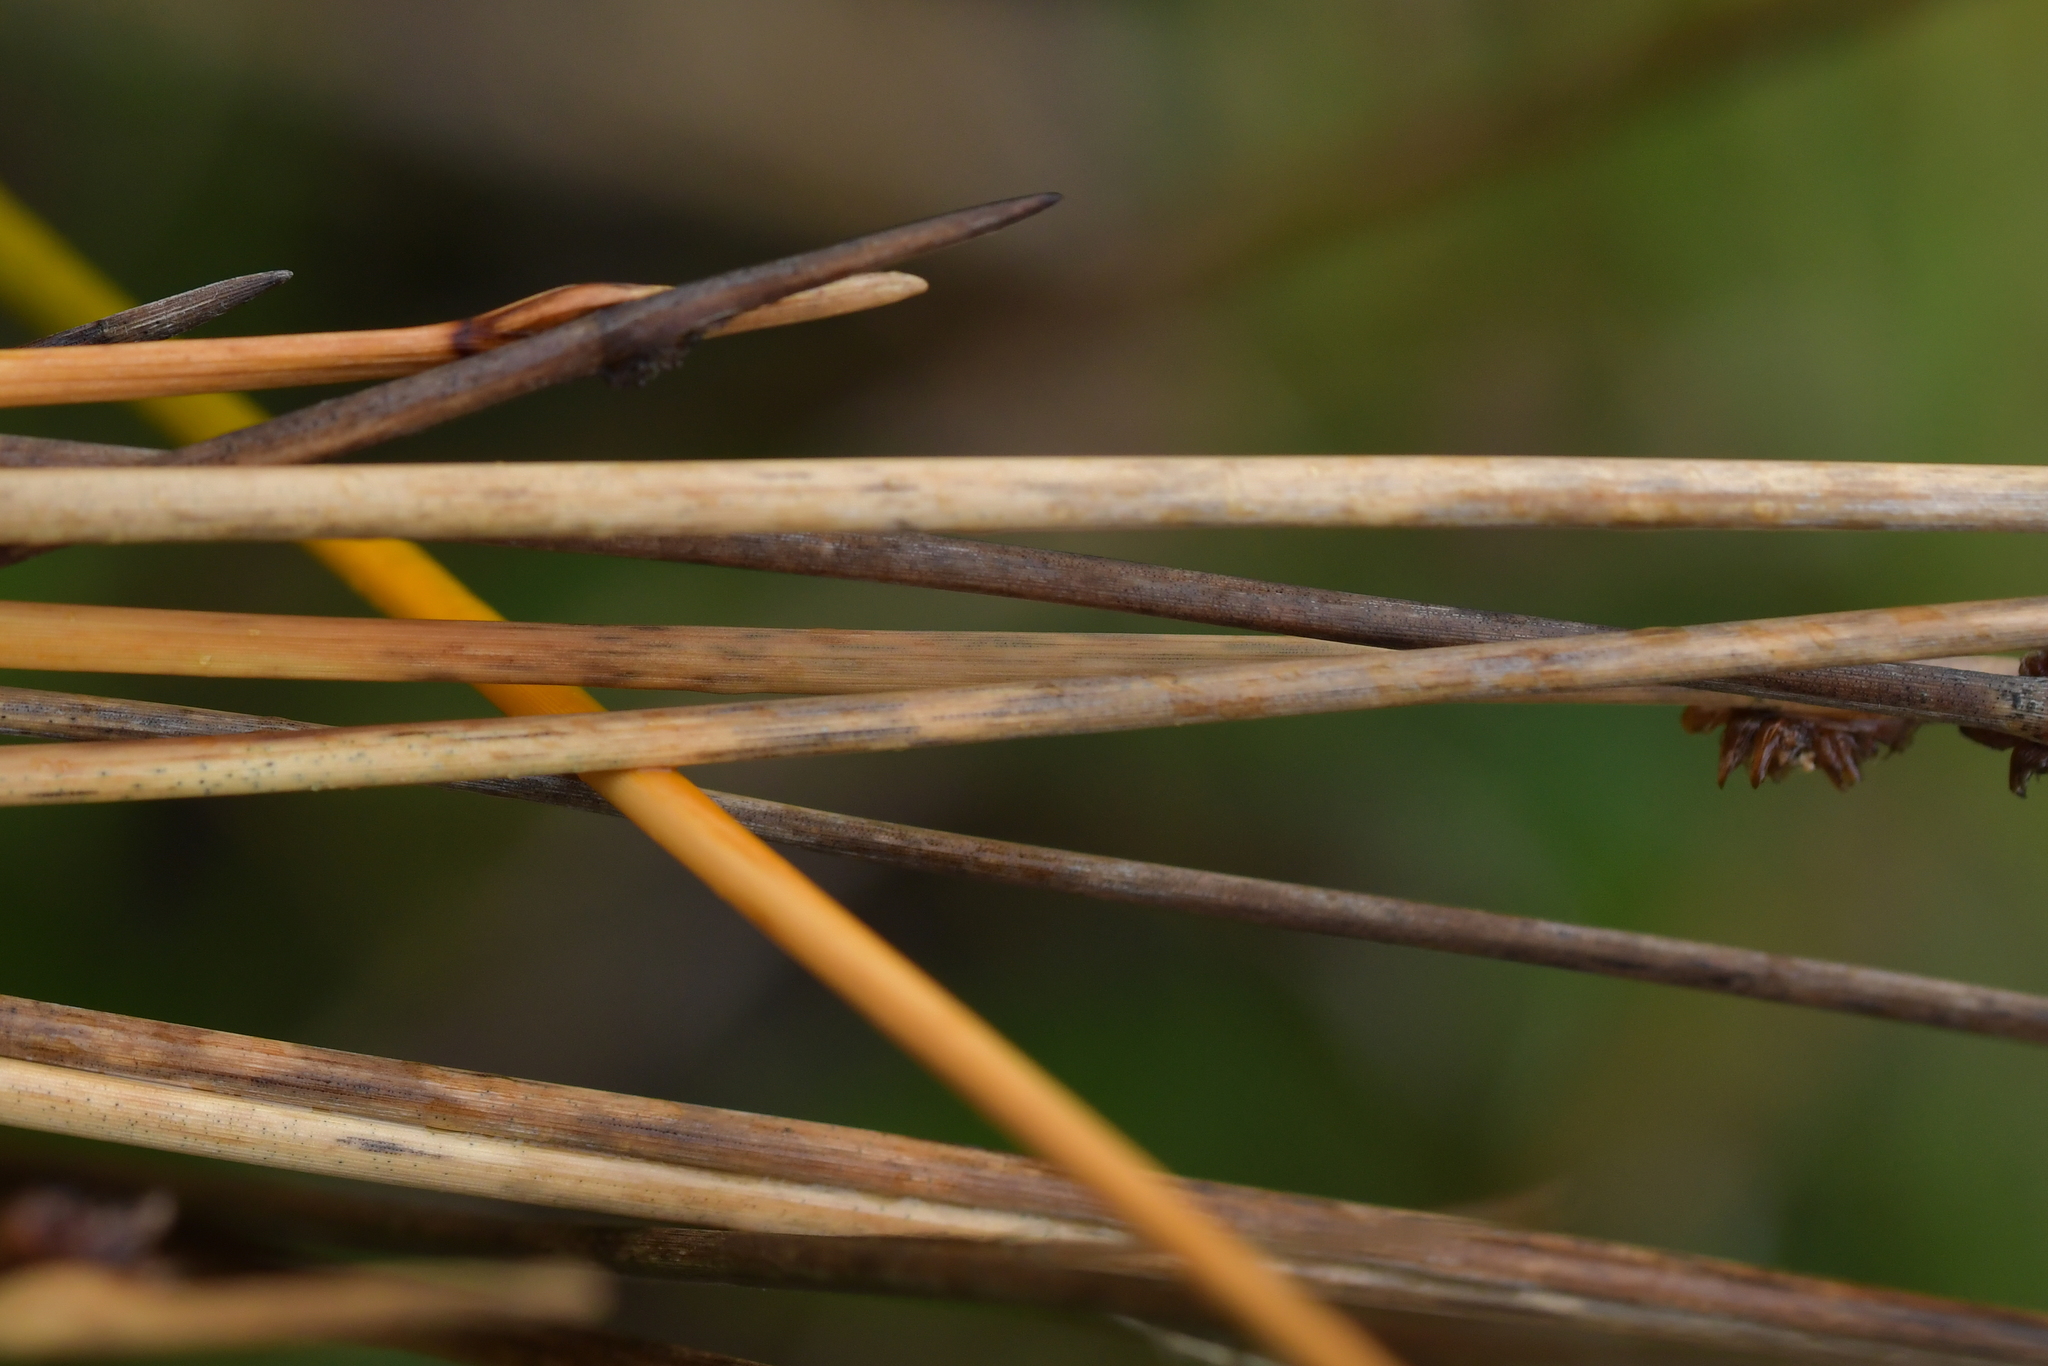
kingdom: Plantae
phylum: Tracheophyta
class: Liliopsida
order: Poales
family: Cyperaceae
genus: Ficinia
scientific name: Ficinia nodosa
